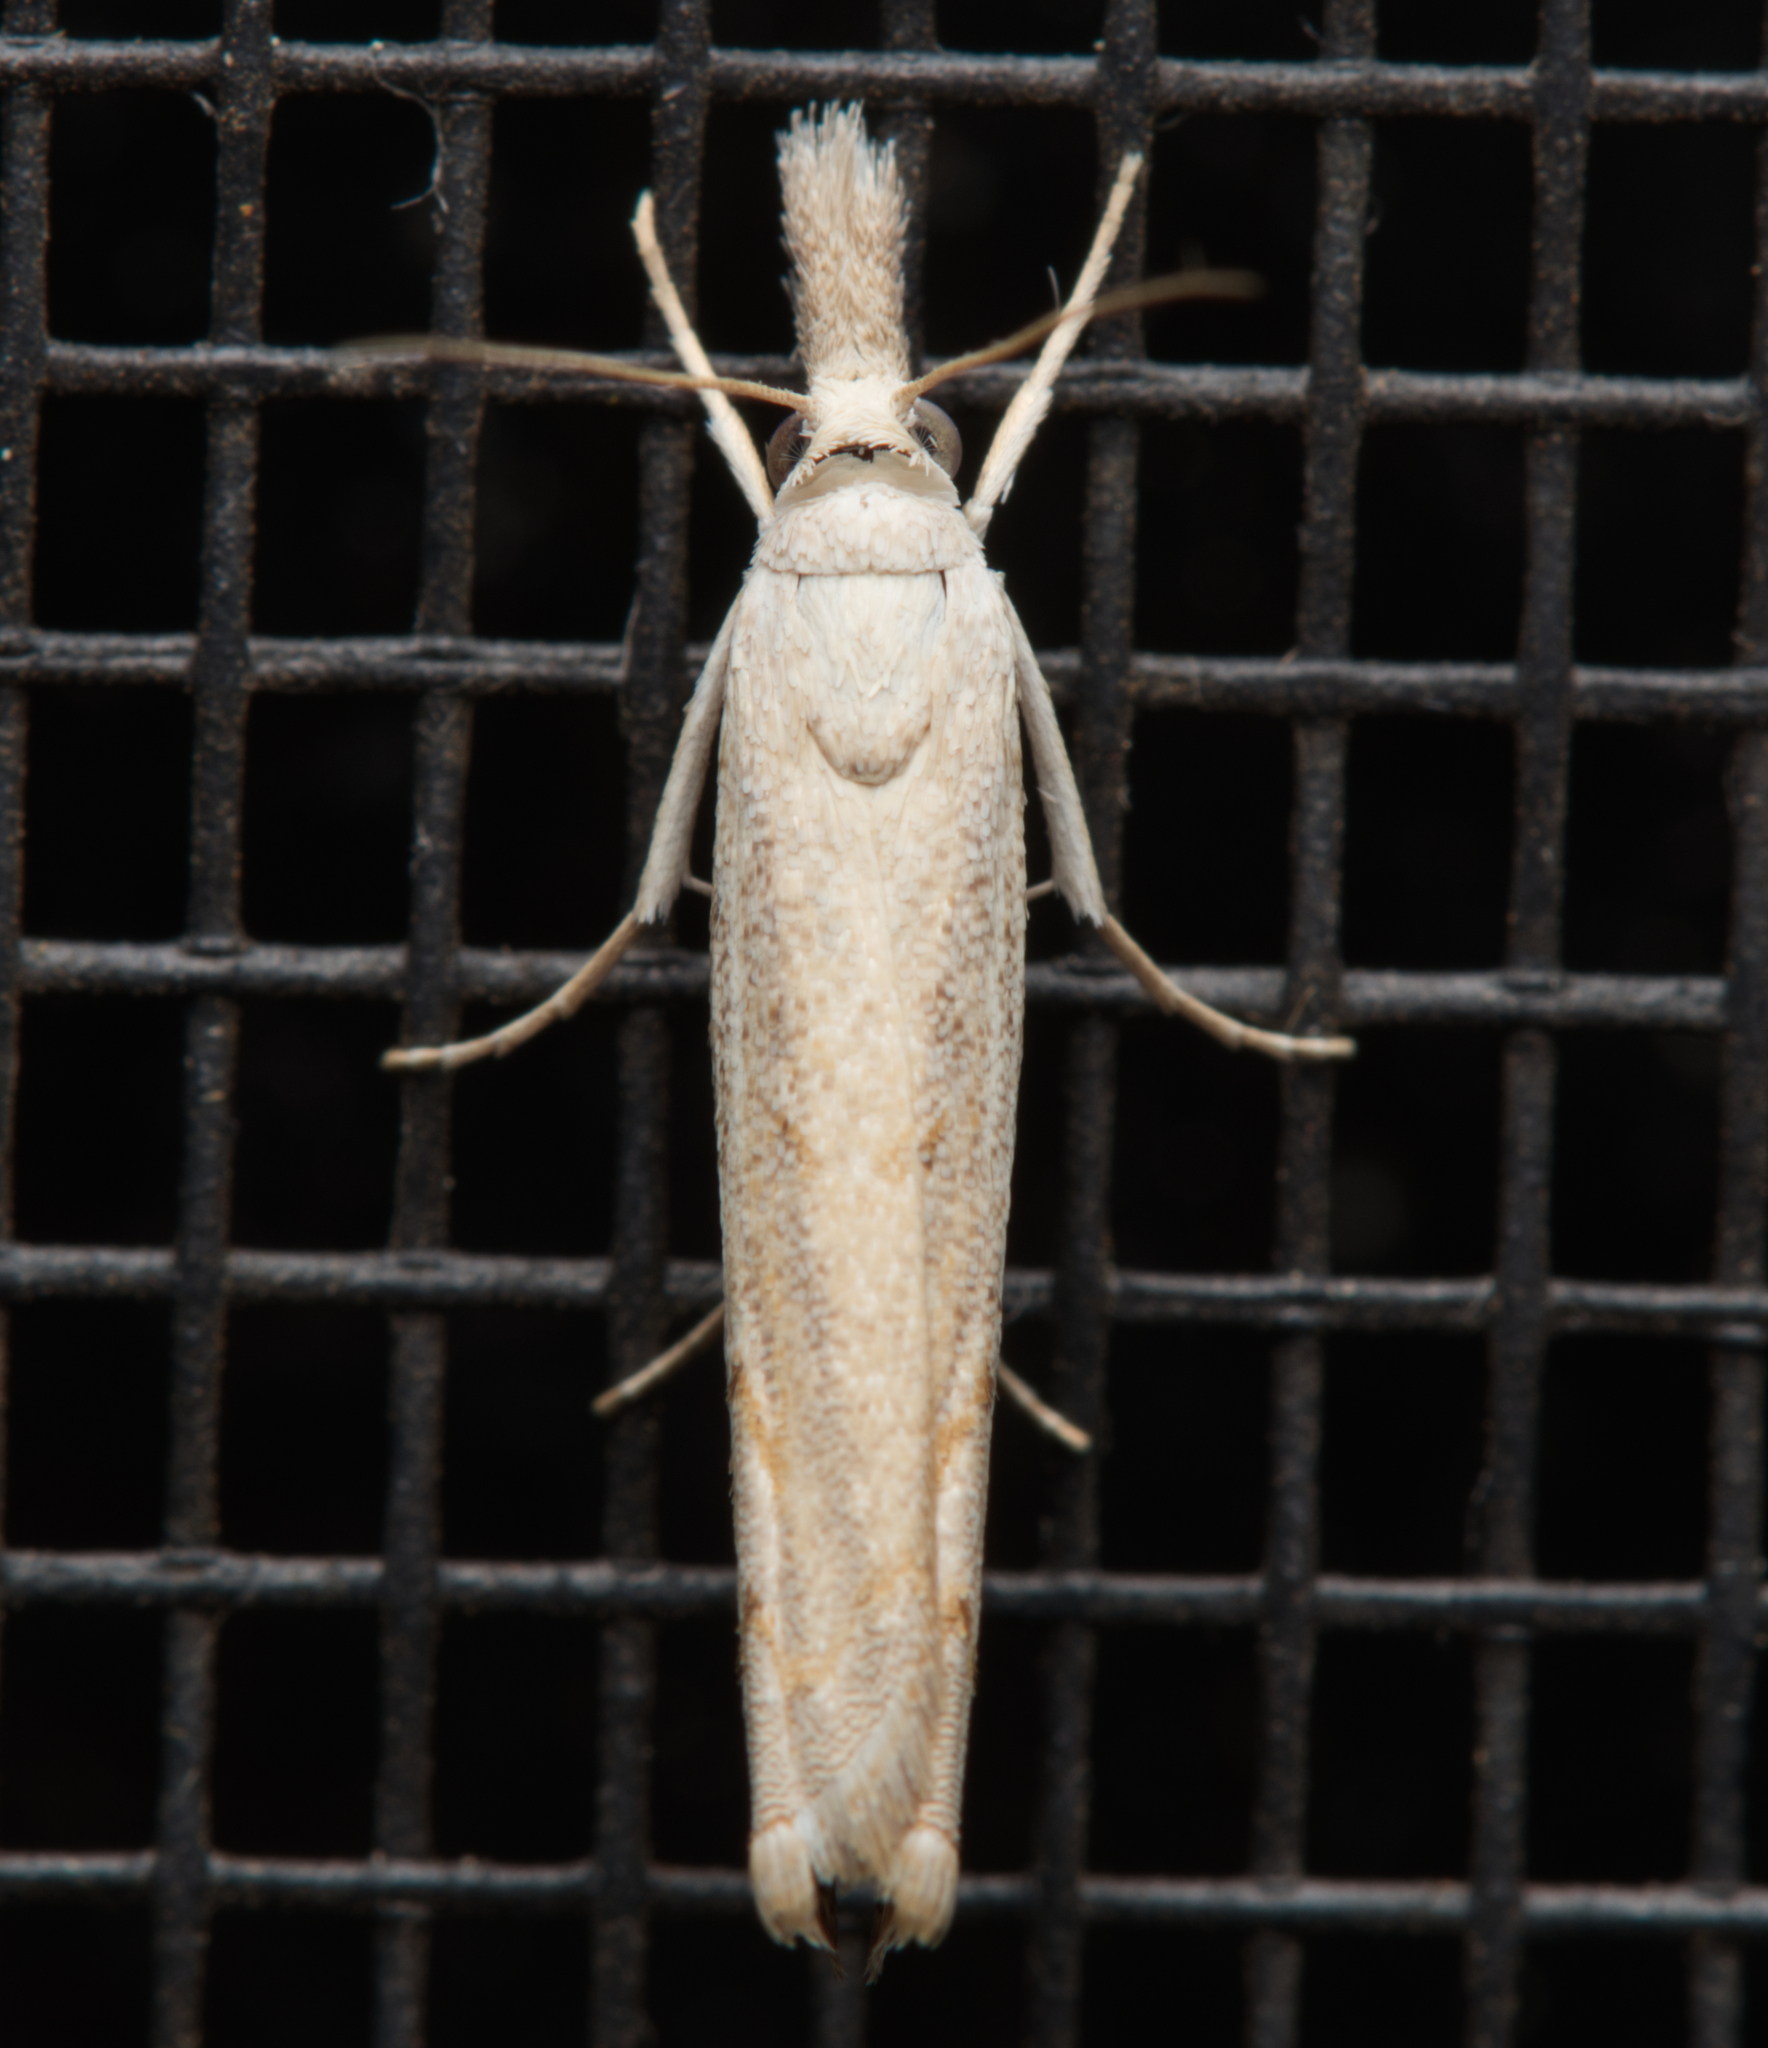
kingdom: Animalia
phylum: Arthropoda
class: Insecta
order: Lepidoptera
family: Crambidae
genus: Culladia
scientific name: Culladia cuneiferellus
